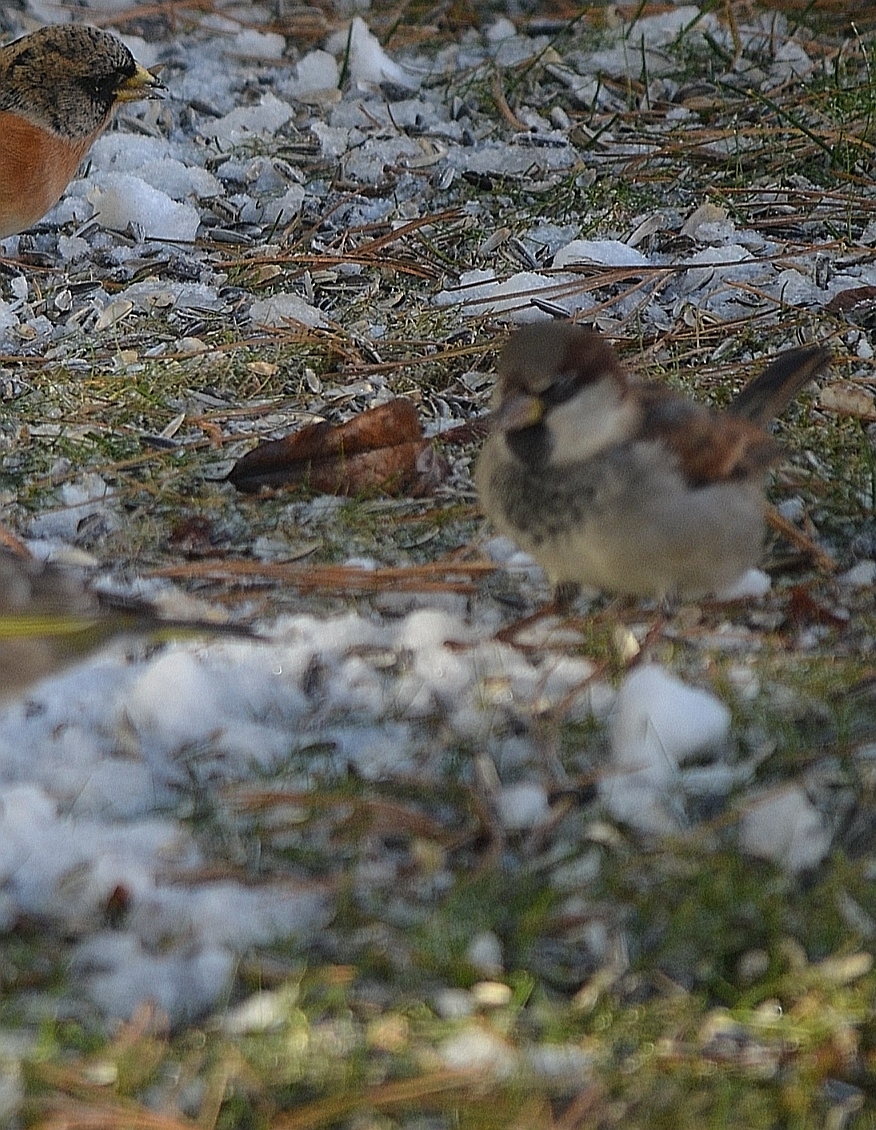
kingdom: Animalia
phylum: Chordata
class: Aves
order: Passeriformes
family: Passeridae
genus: Passer
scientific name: Passer domesticus
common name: House sparrow
